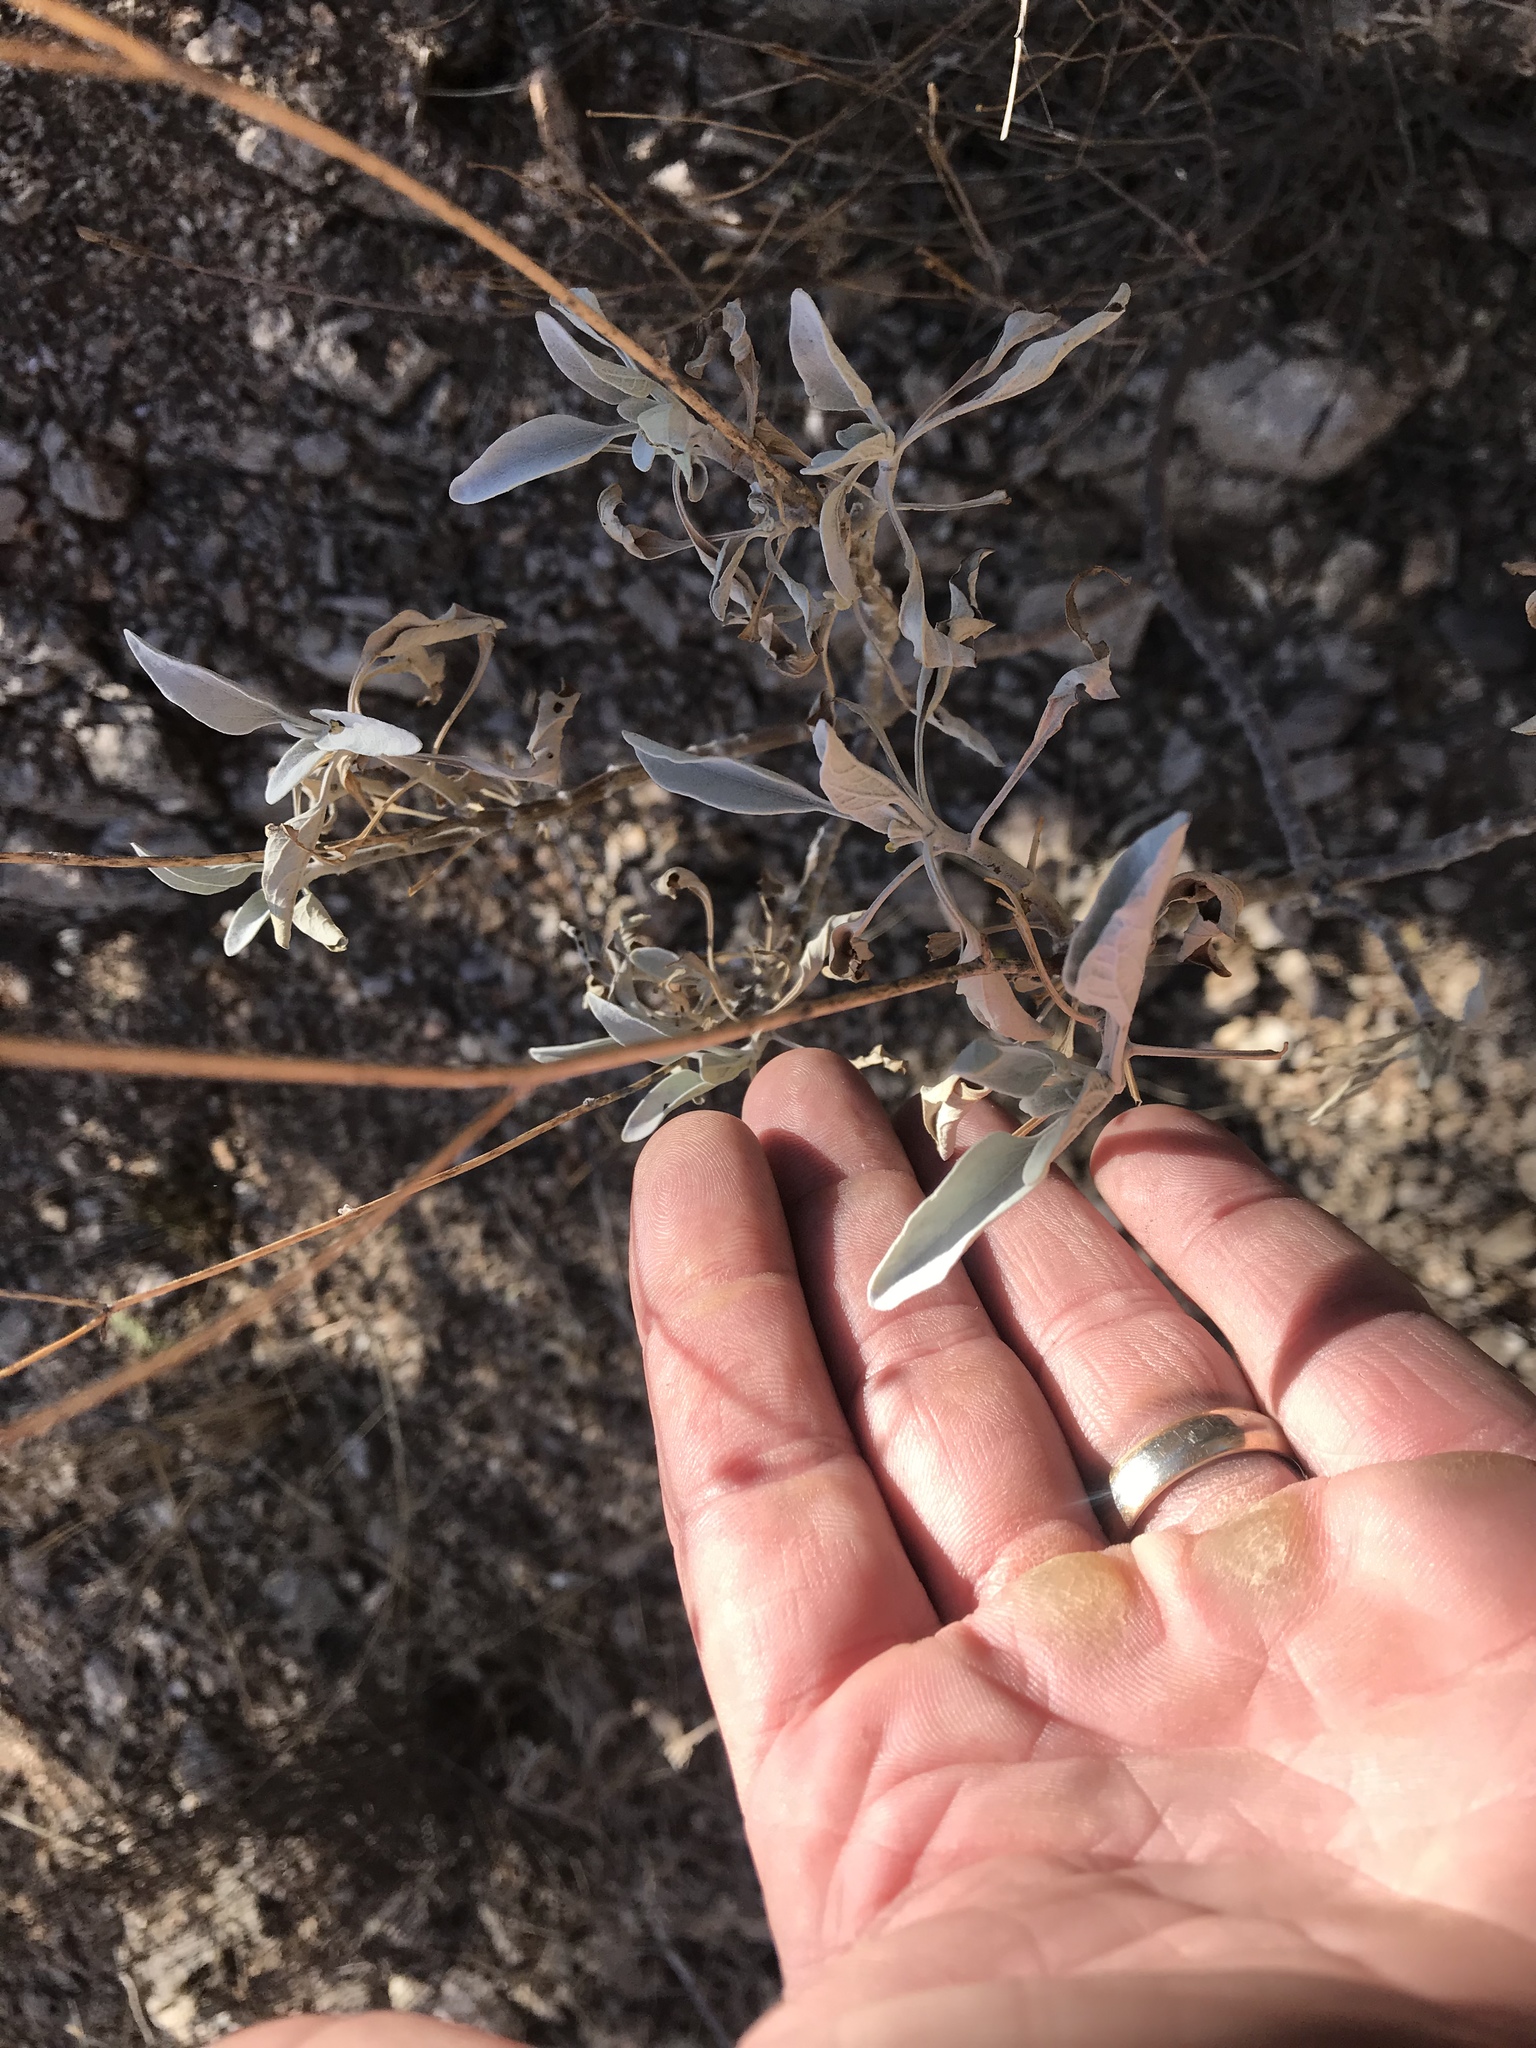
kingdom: Plantae
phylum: Tracheophyta
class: Magnoliopsida
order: Asterales
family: Asteraceae
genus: Encelia
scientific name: Encelia farinosa
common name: Brittlebush
